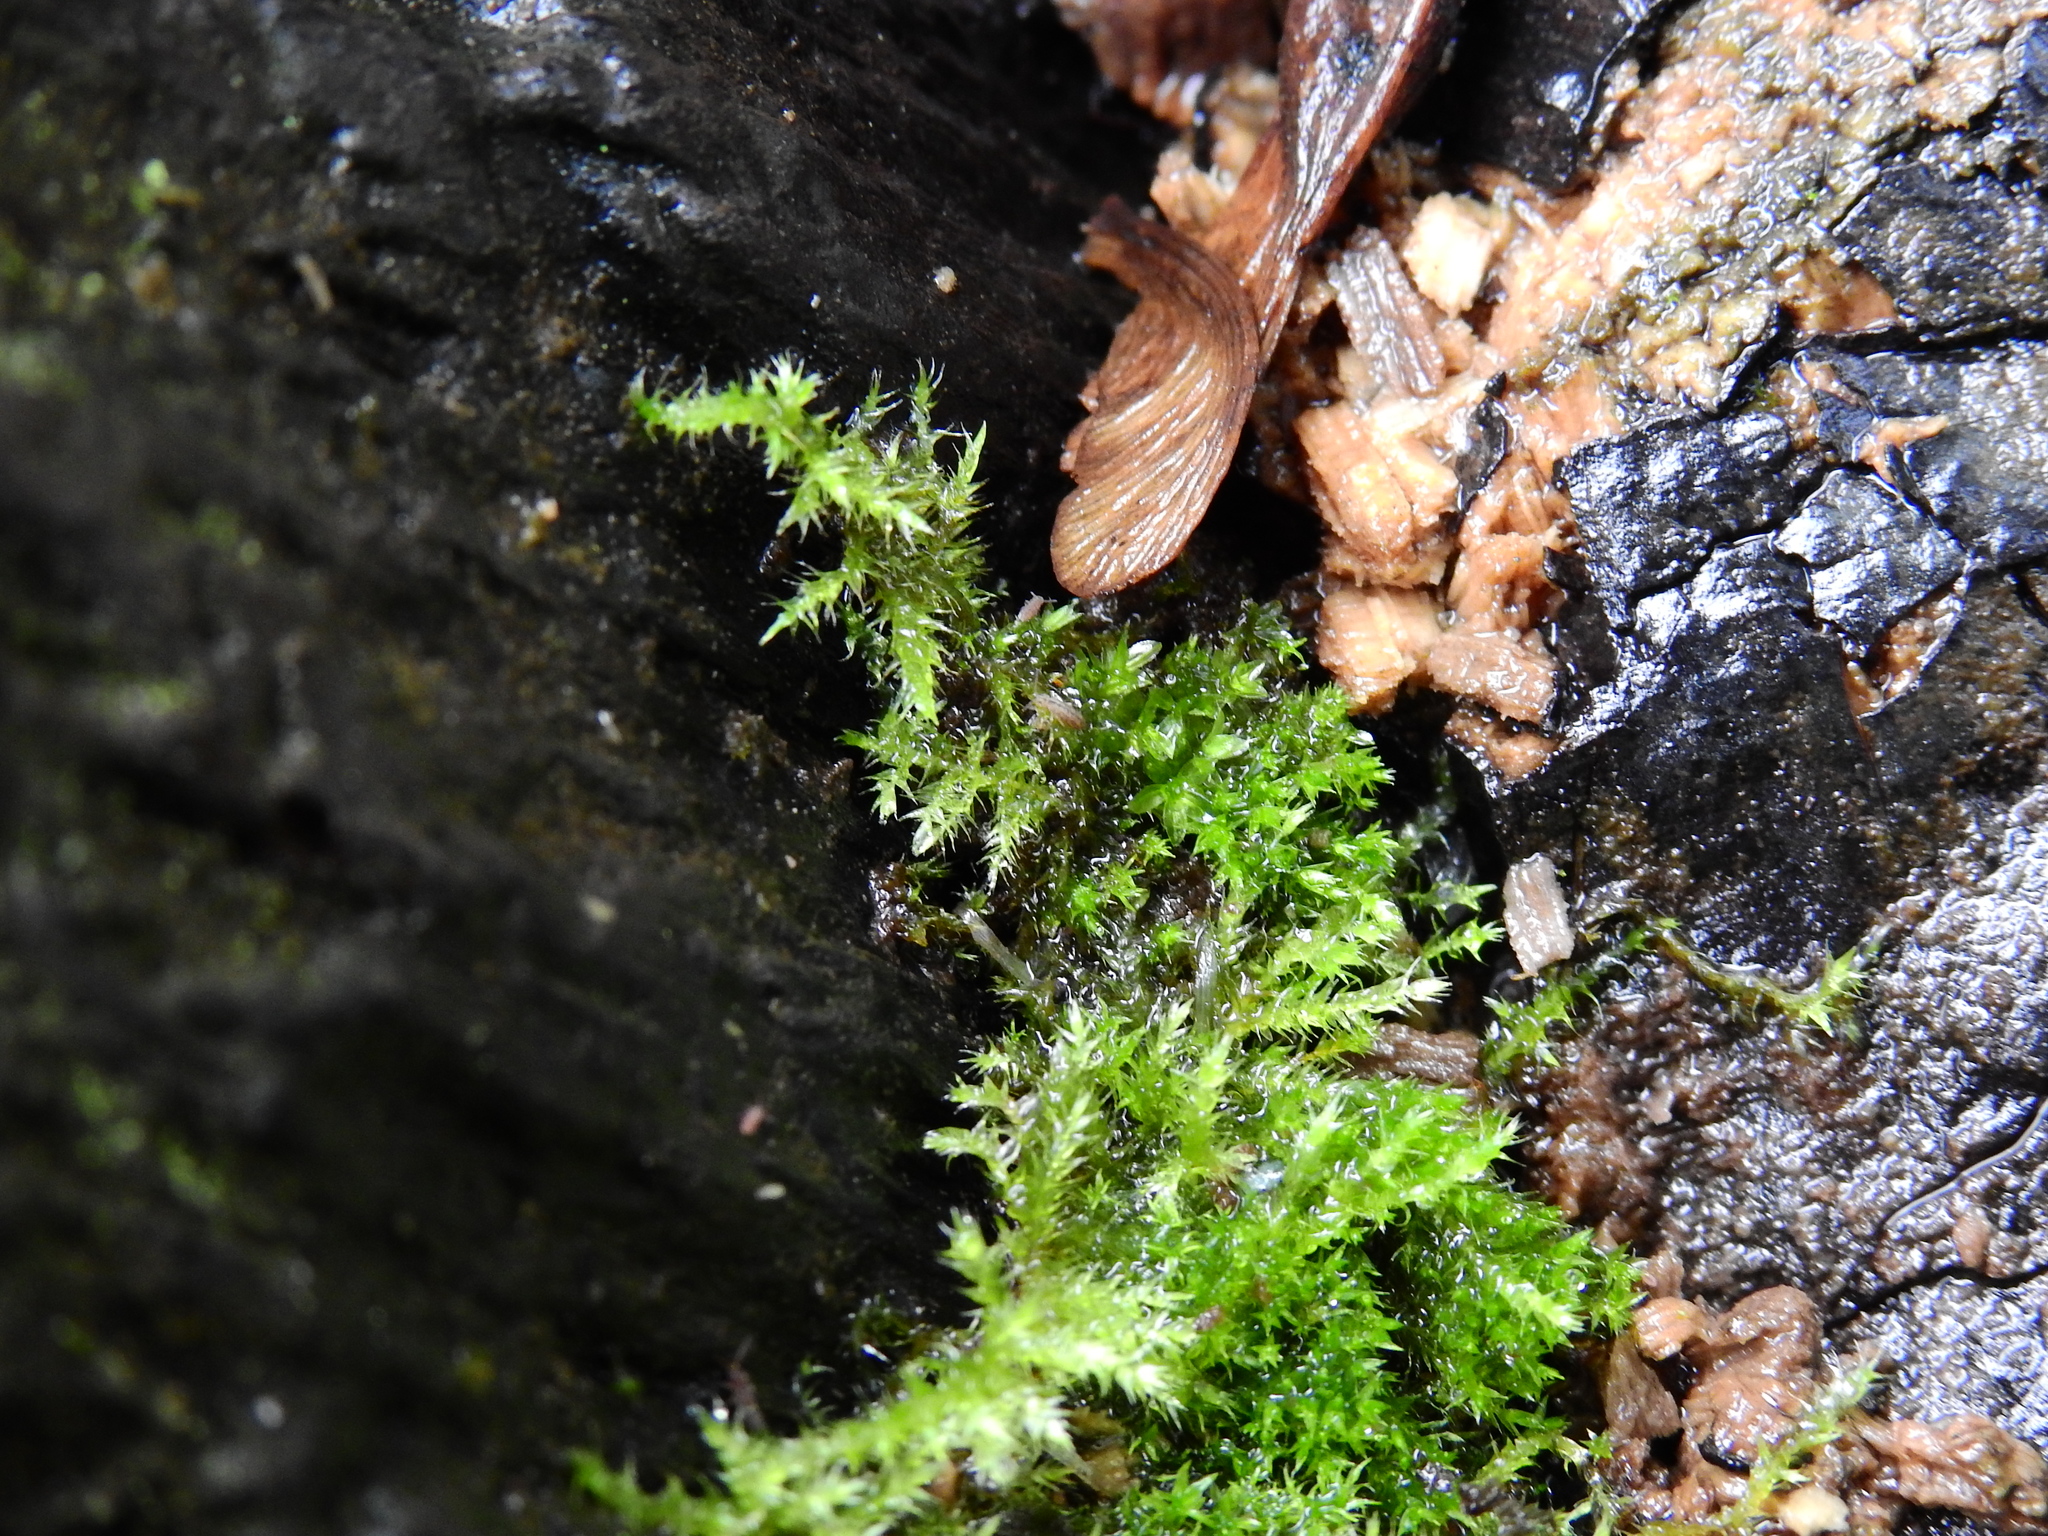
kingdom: Plantae
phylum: Bryophyta
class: Bryopsida
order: Hypnales
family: Brachytheciaceae
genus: Kindbergia
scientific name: Kindbergia praelonga
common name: Slender beaked moss
